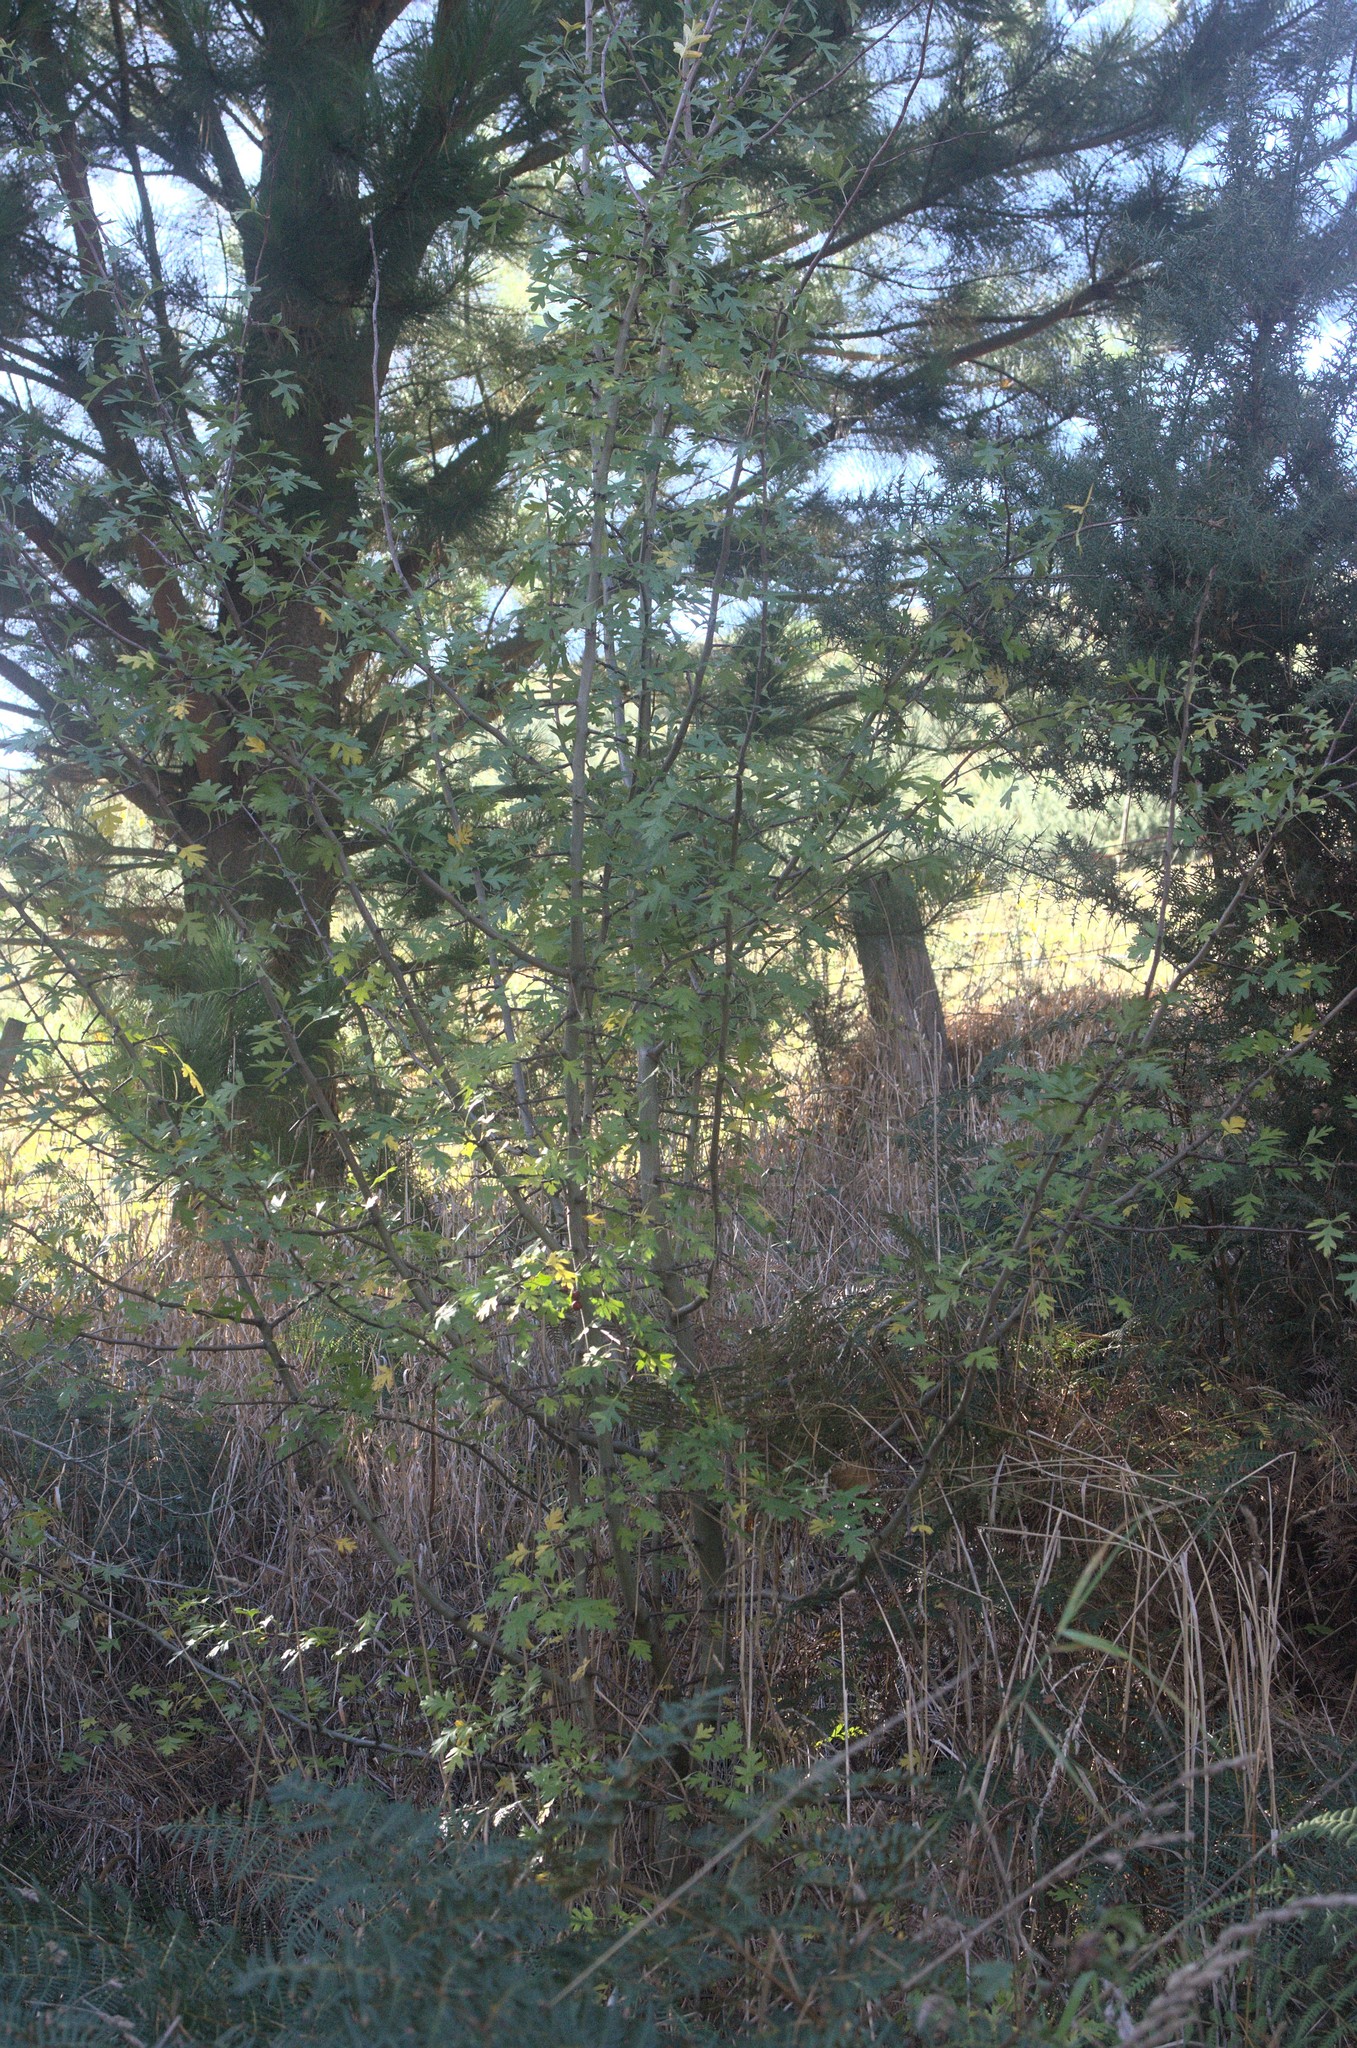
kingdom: Plantae
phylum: Tracheophyta
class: Magnoliopsida
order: Rosales
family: Rosaceae
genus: Crataegus
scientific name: Crataegus monogyna
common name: Hawthorn
